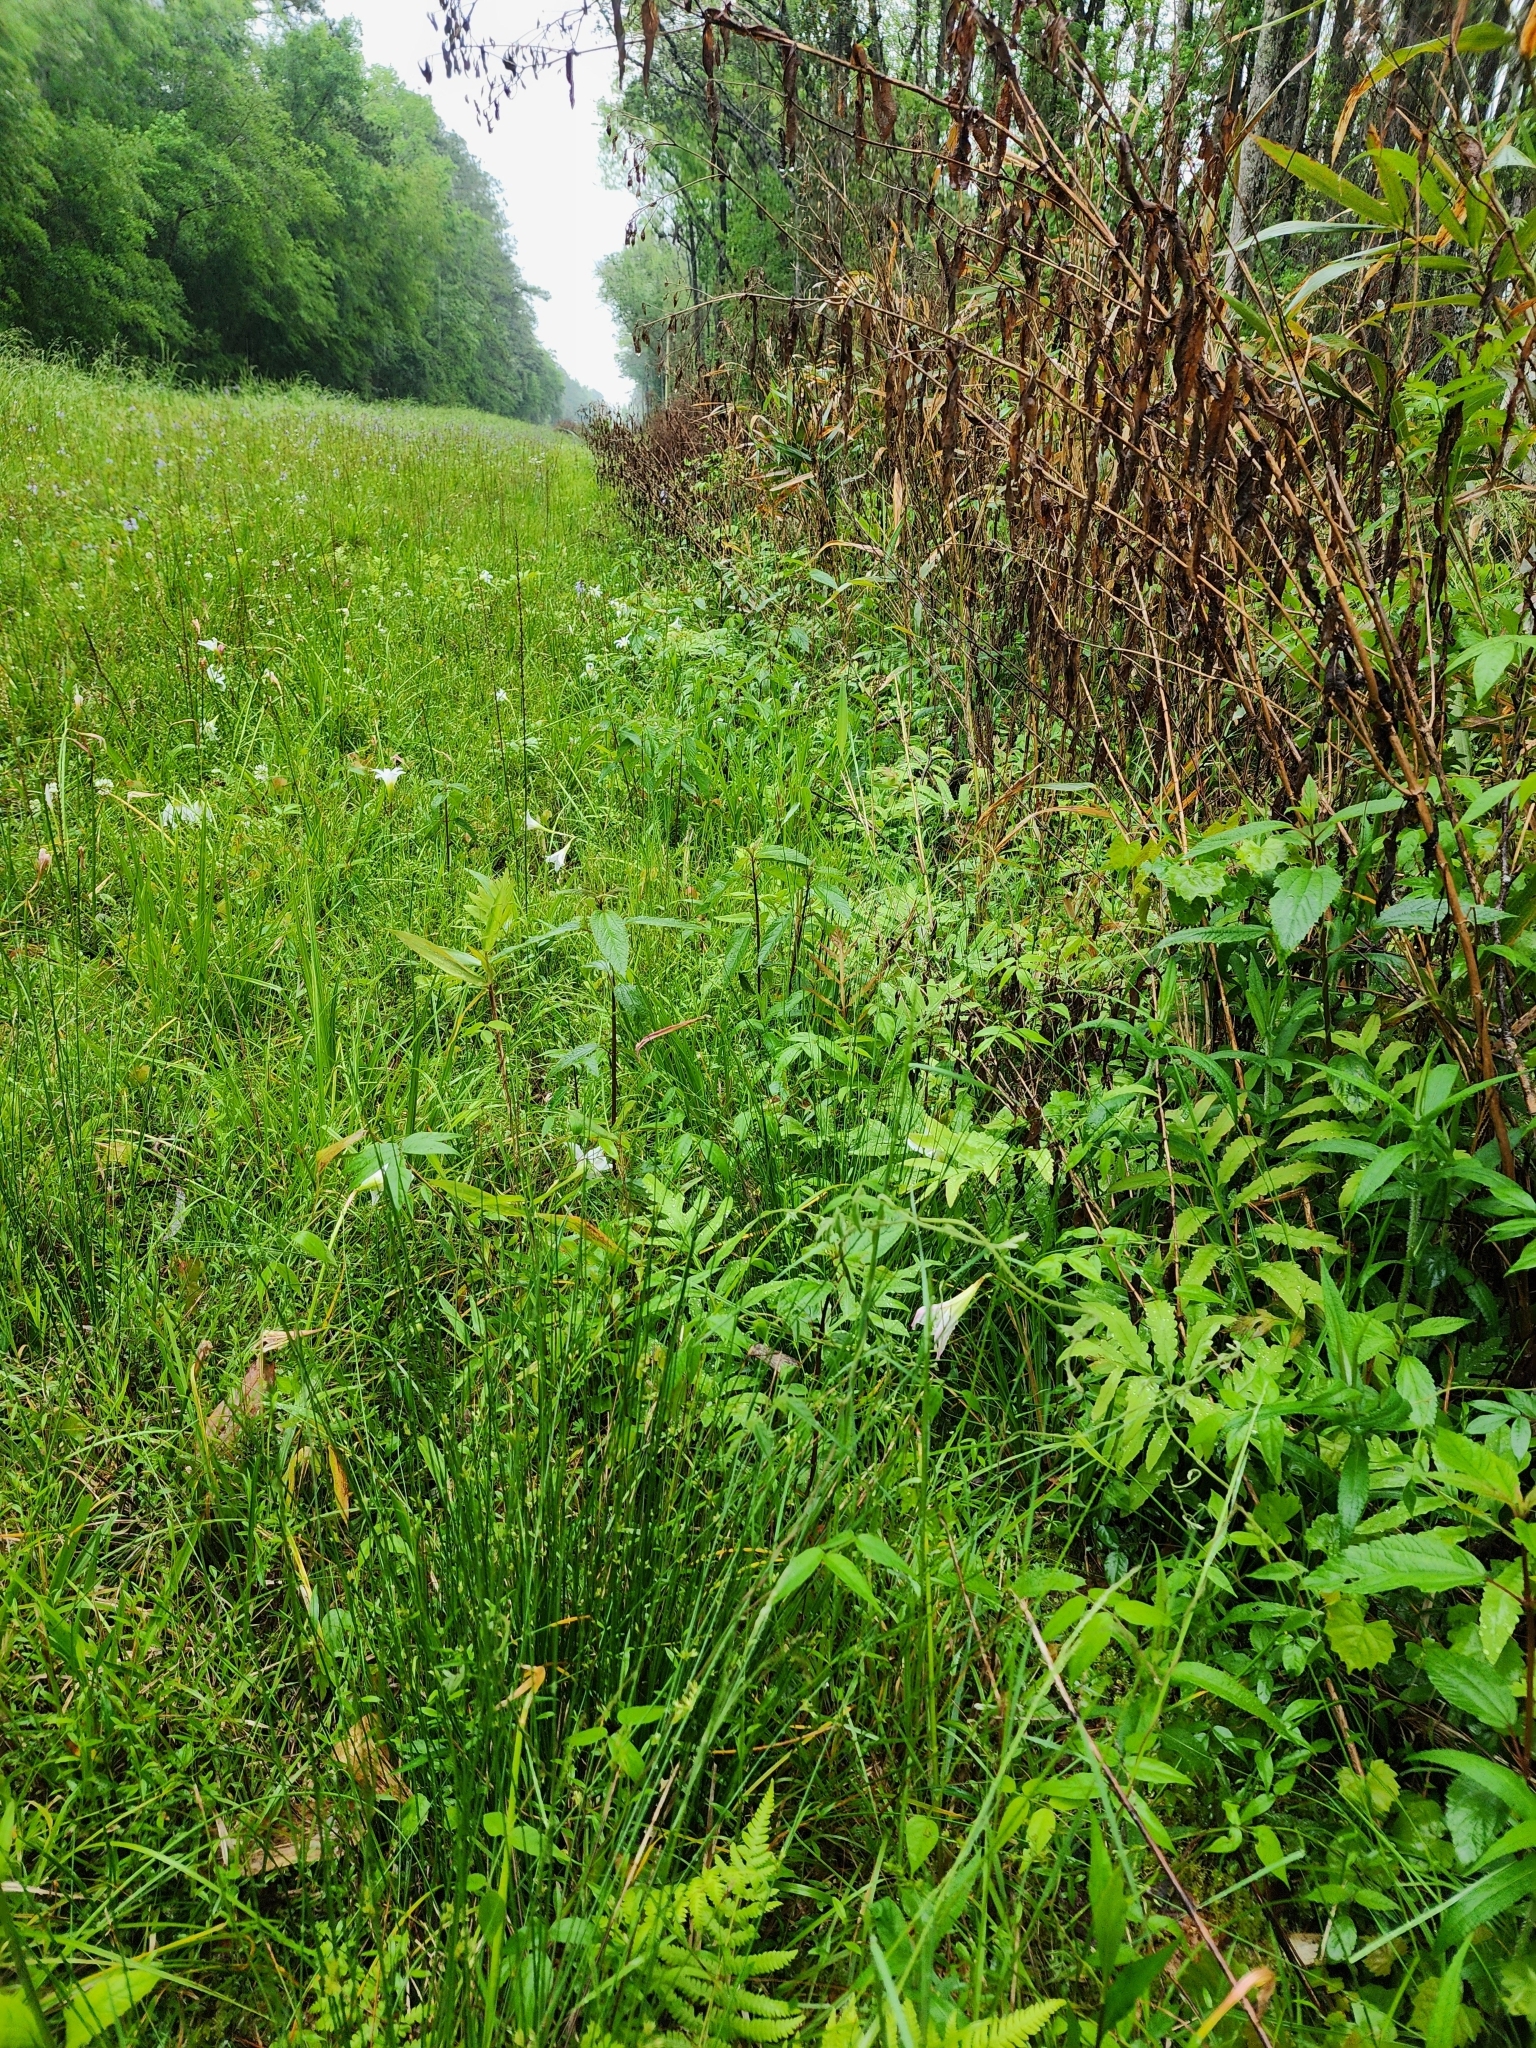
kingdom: Plantae
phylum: Tracheophyta
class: Polypodiopsida
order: Polypodiales
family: Onocleaceae
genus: Onoclea
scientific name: Onoclea sensibilis
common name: Sensitive fern
